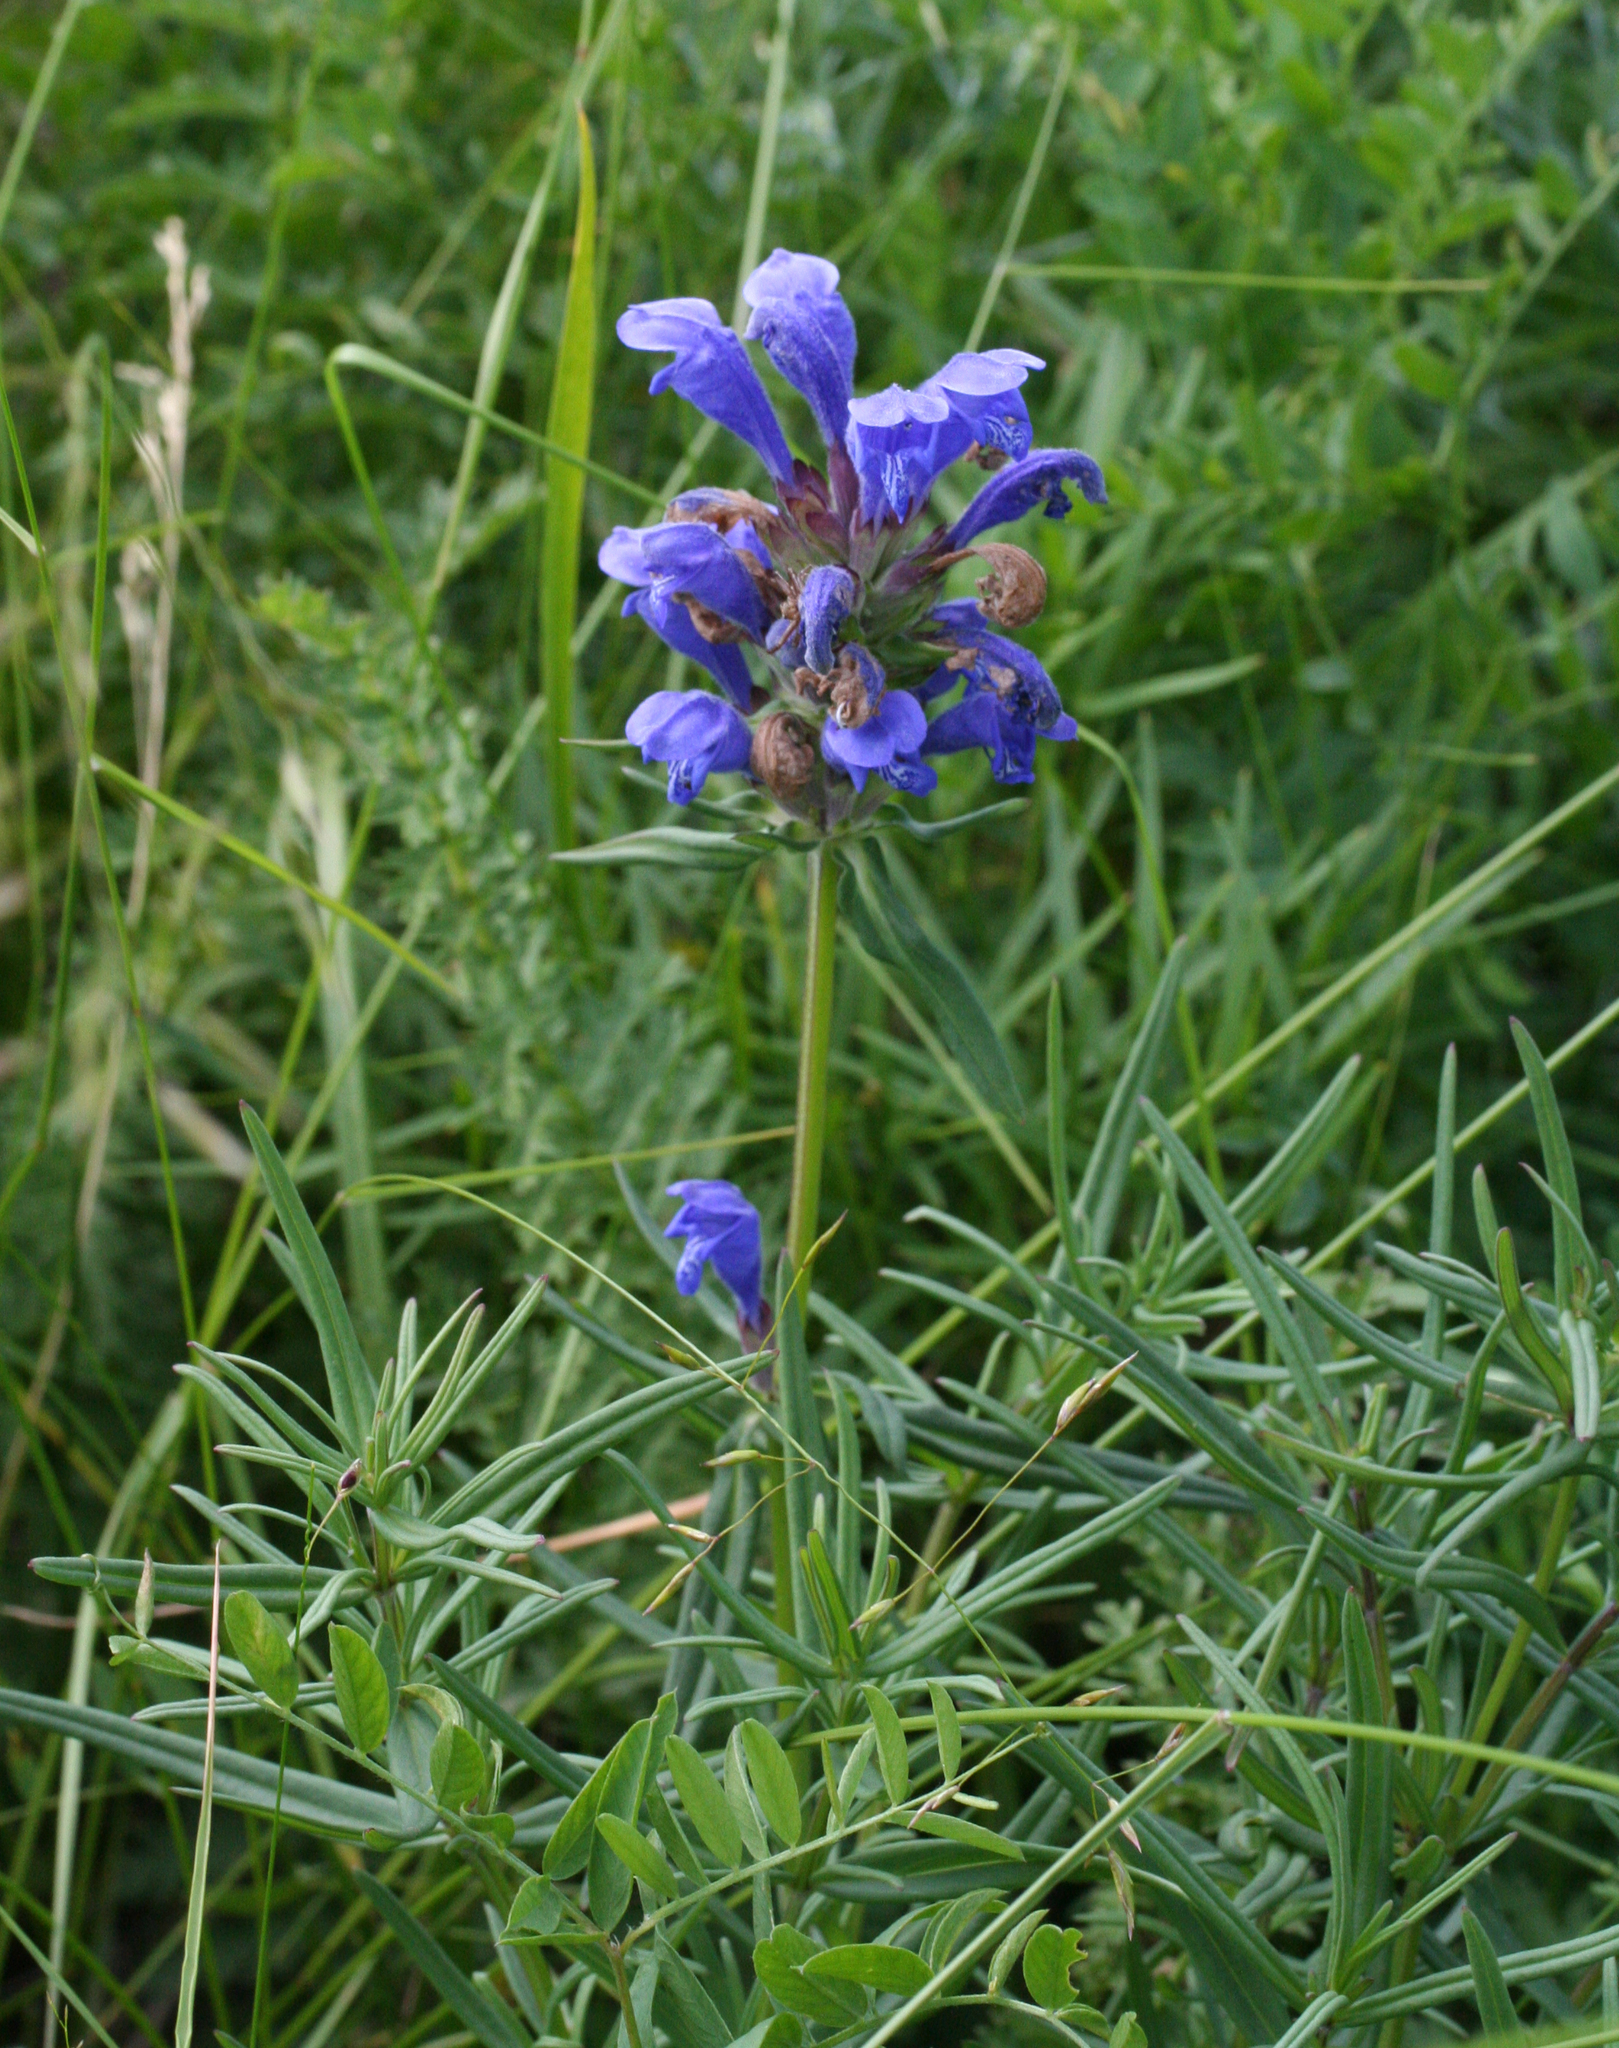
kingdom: Plantae
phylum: Tracheophyta
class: Magnoliopsida
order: Lamiales
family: Lamiaceae
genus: Dracocephalum
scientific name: Dracocephalum ruyschiana
